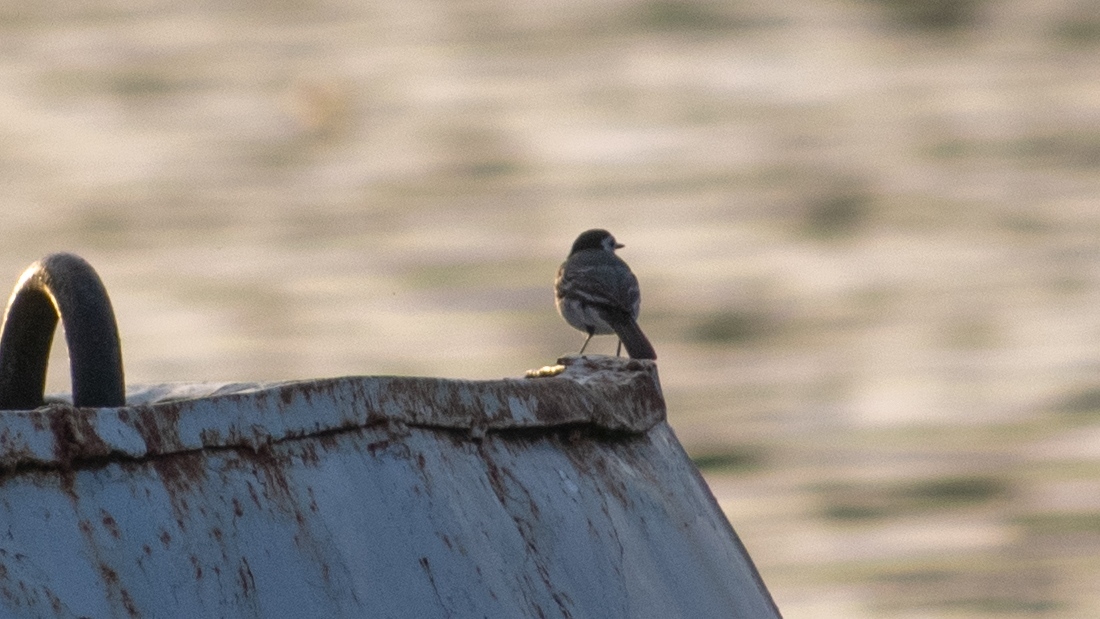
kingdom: Animalia
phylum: Chordata
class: Aves
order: Passeriformes
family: Motacillidae
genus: Motacilla
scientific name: Motacilla alba
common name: White wagtail
